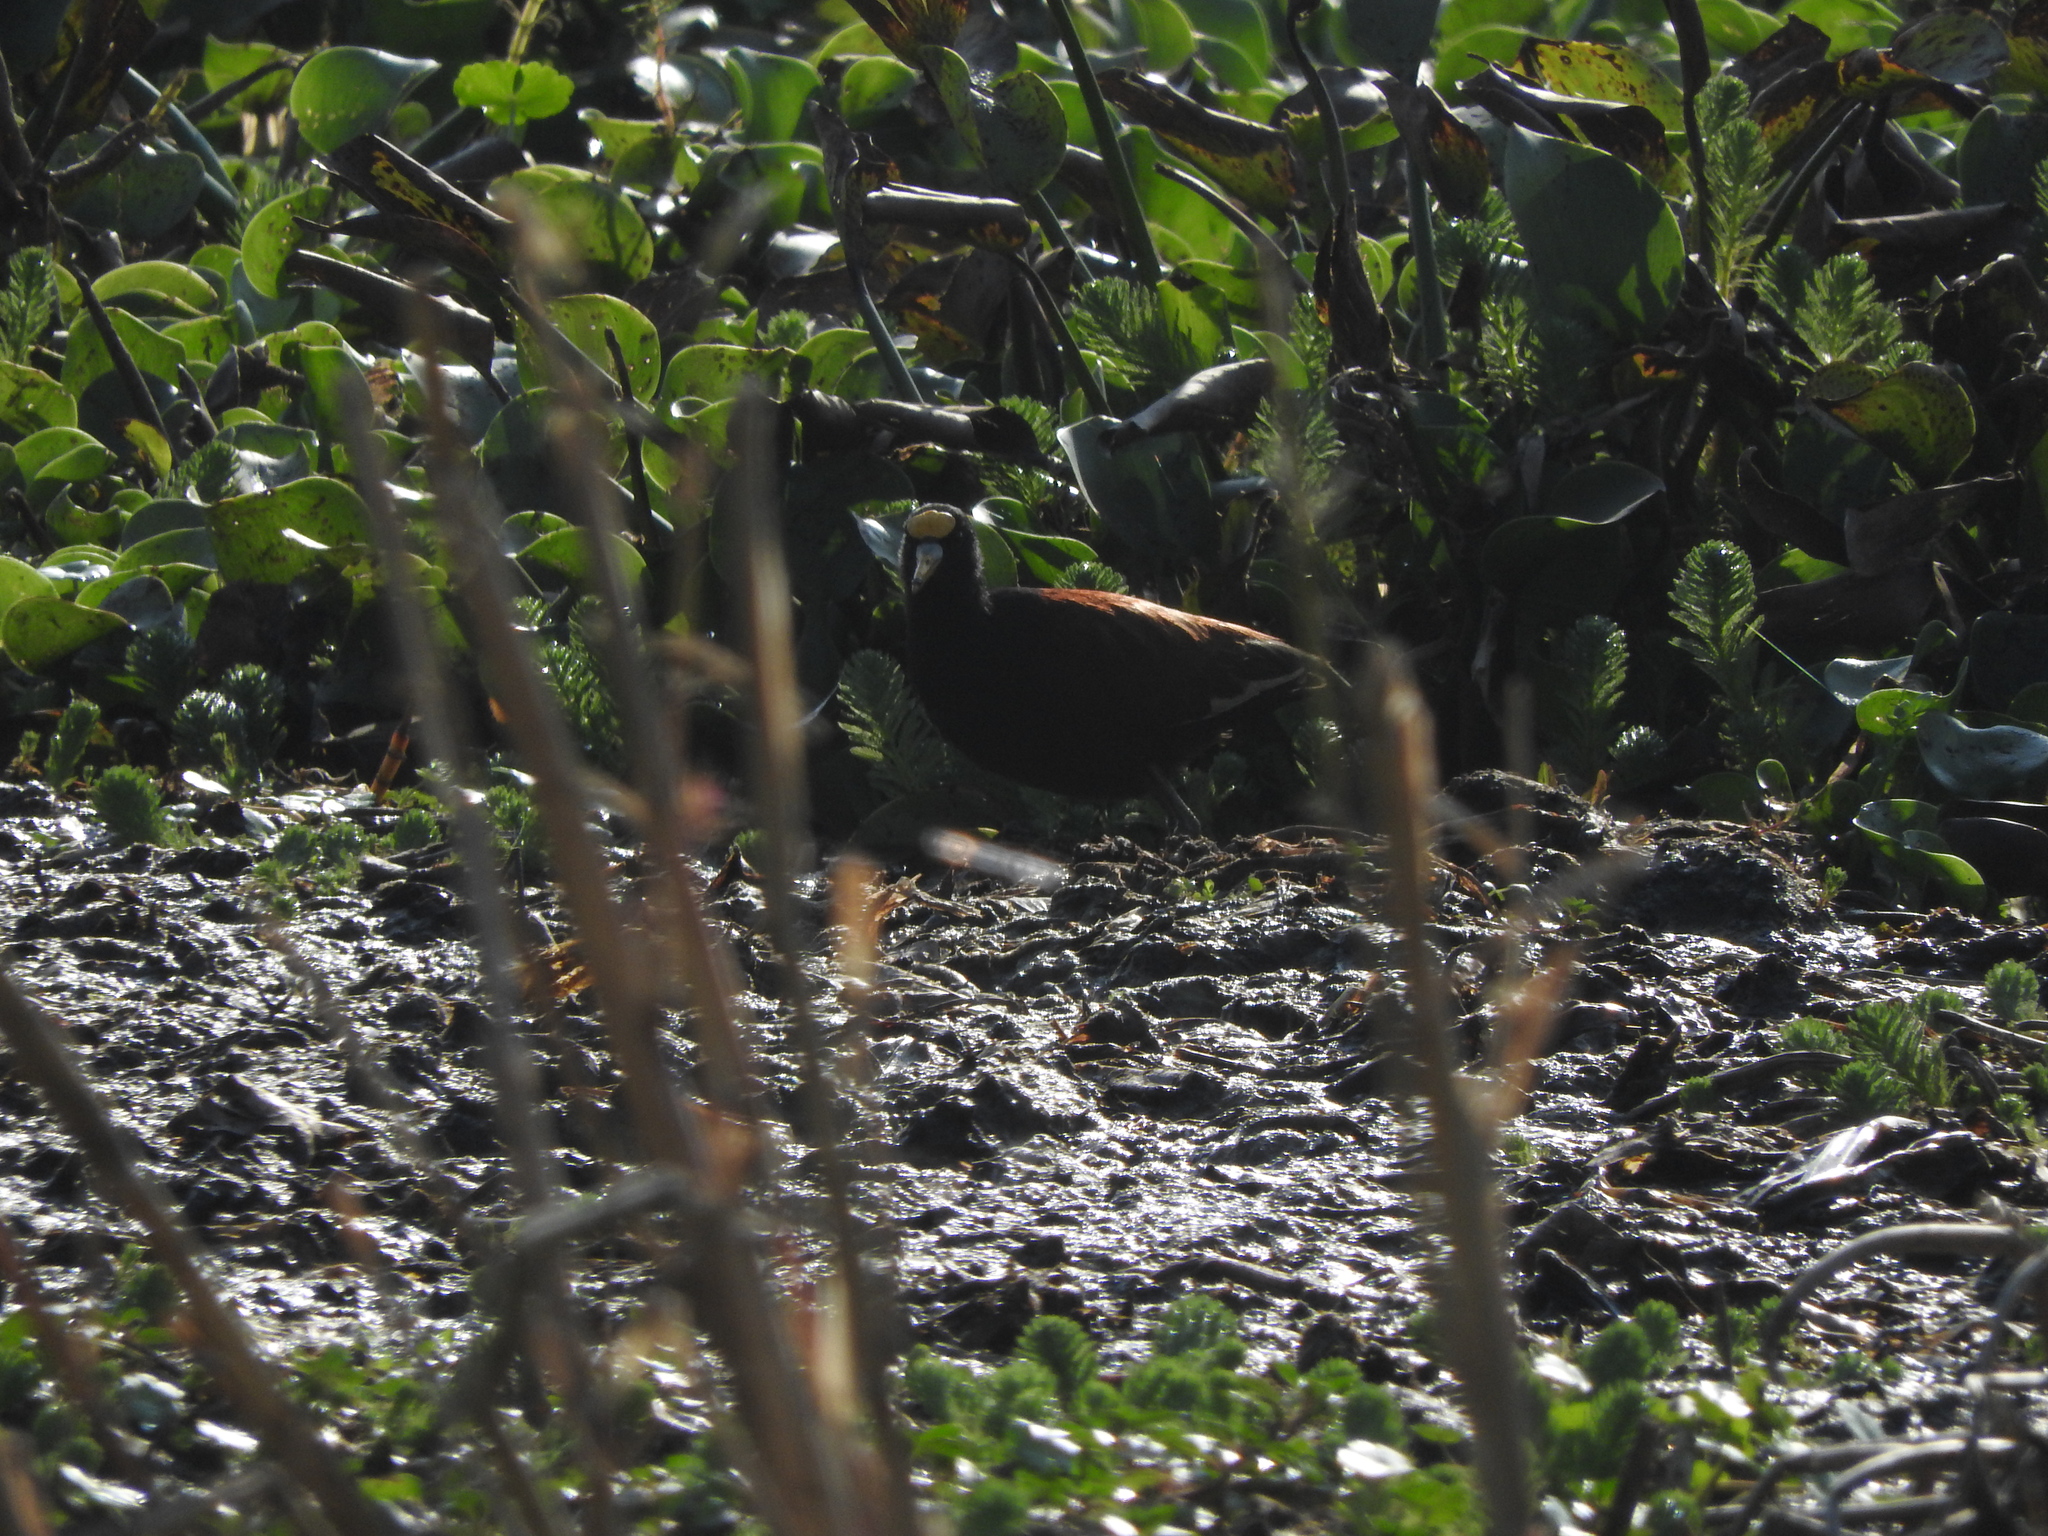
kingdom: Animalia
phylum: Chordata
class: Aves
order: Charadriiformes
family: Jacanidae
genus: Jacana
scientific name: Jacana spinosa
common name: Northern jacana
